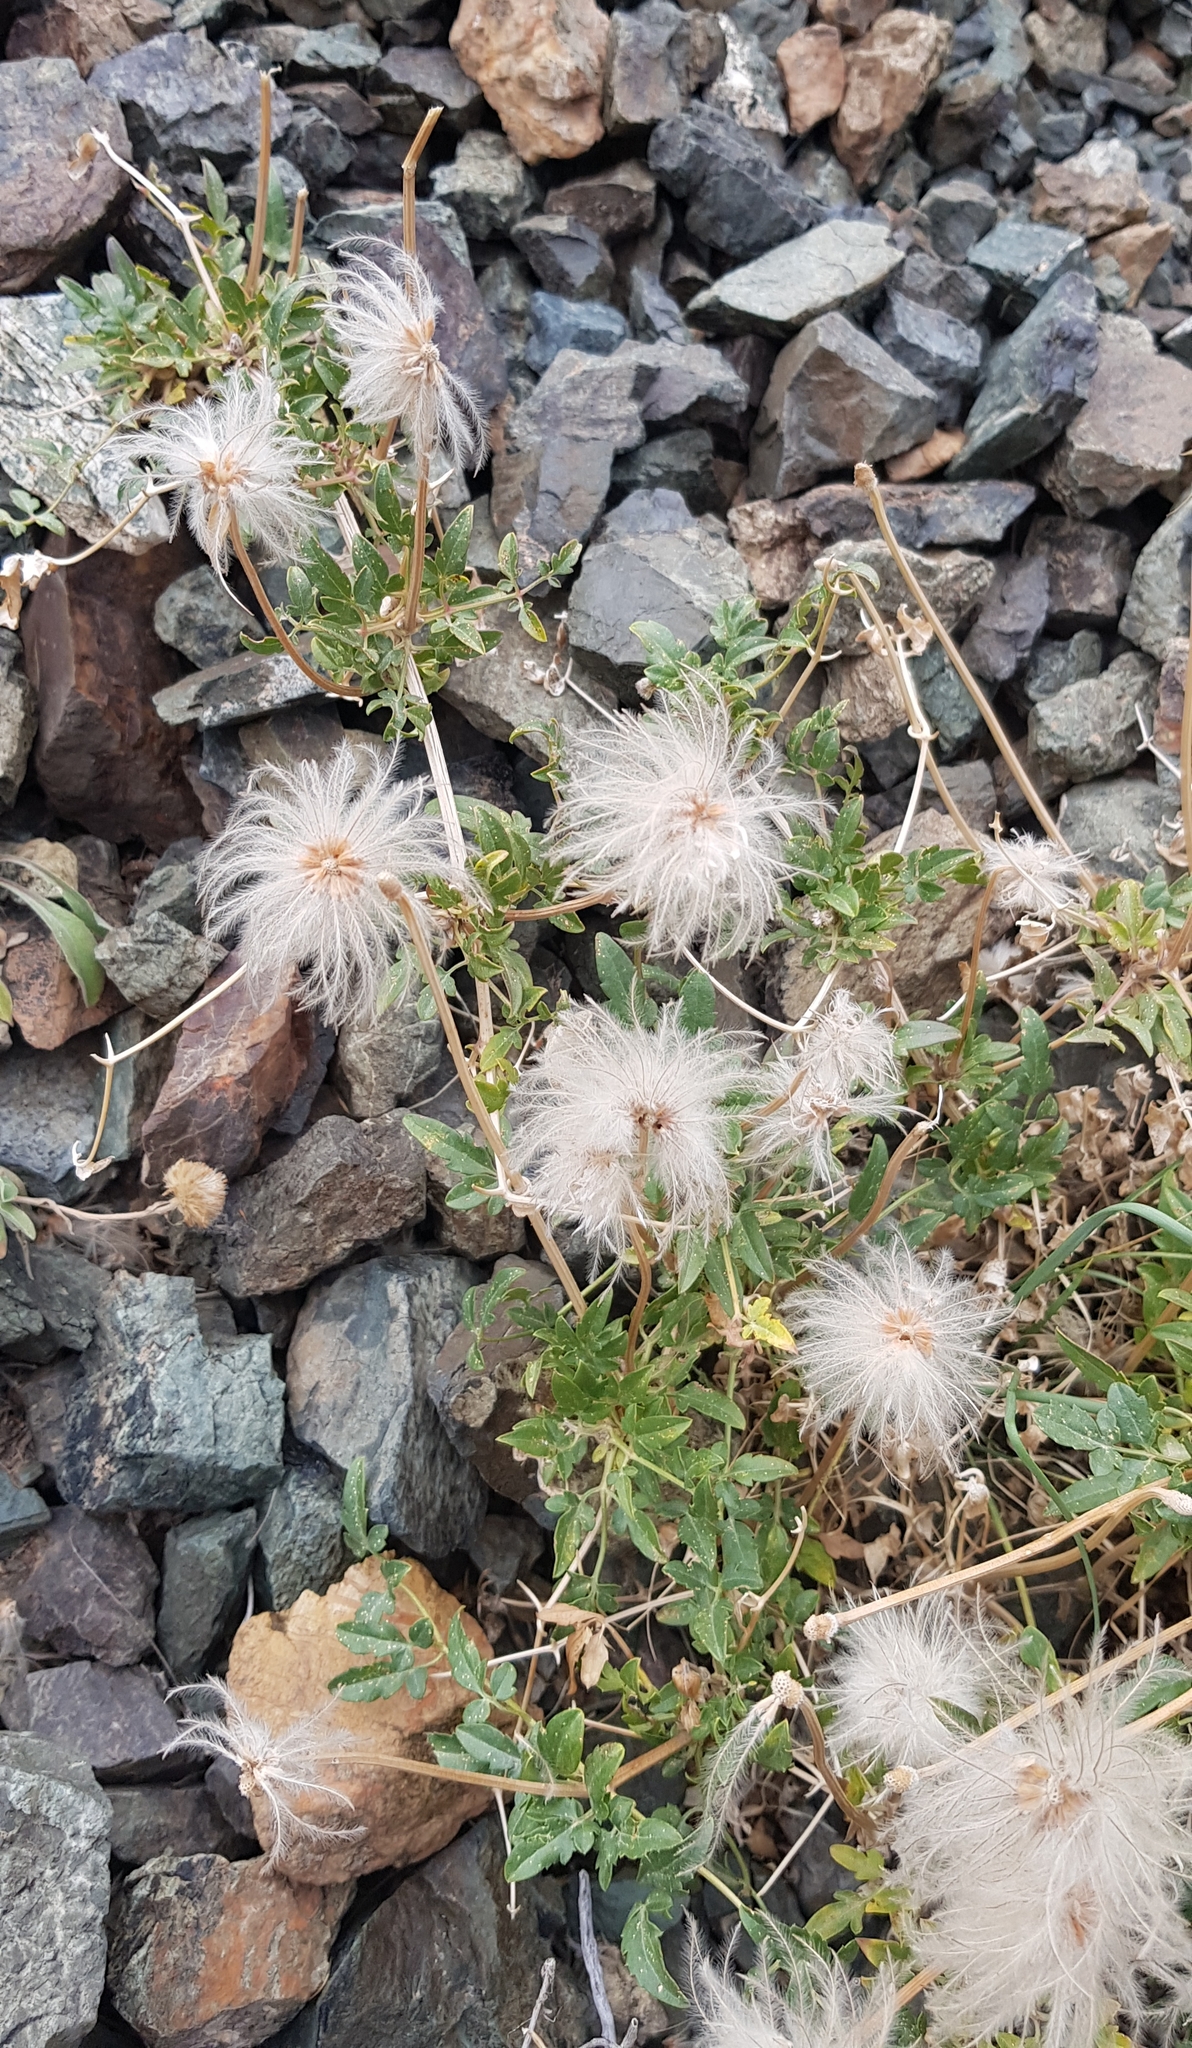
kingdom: Plantae
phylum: Tracheophyta
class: Magnoliopsida
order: Ranunculales
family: Ranunculaceae
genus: Clematis
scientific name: Clematis tangutica
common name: Orange-peel clematis
